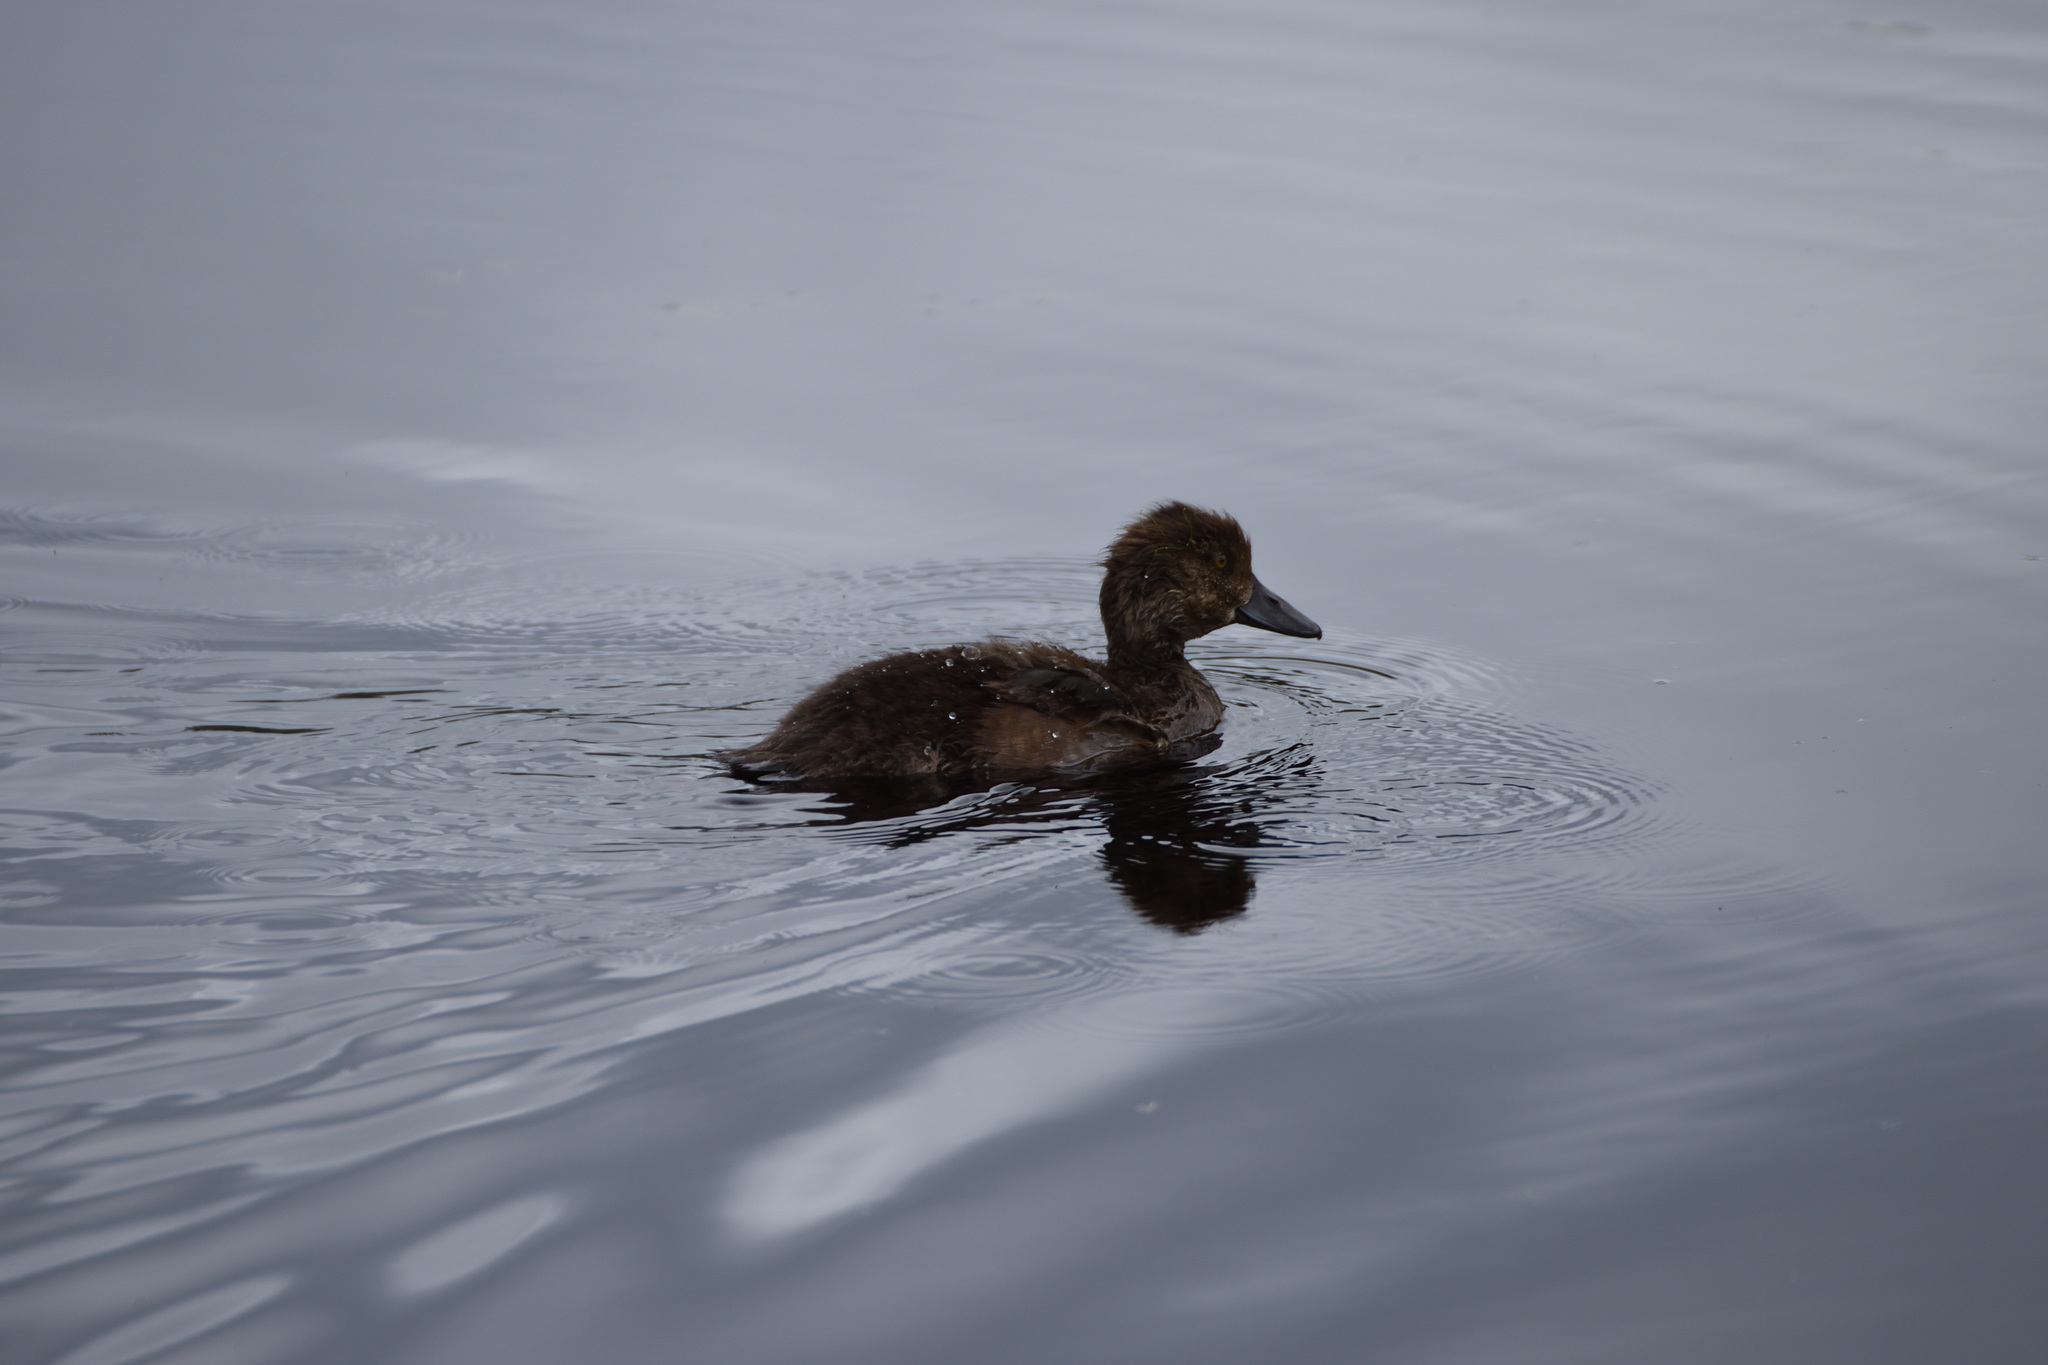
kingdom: Animalia
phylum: Chordata
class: Aves
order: Anseriformes
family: Anatidae
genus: Aythya
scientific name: Aythya fuligula
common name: Tufted duck
